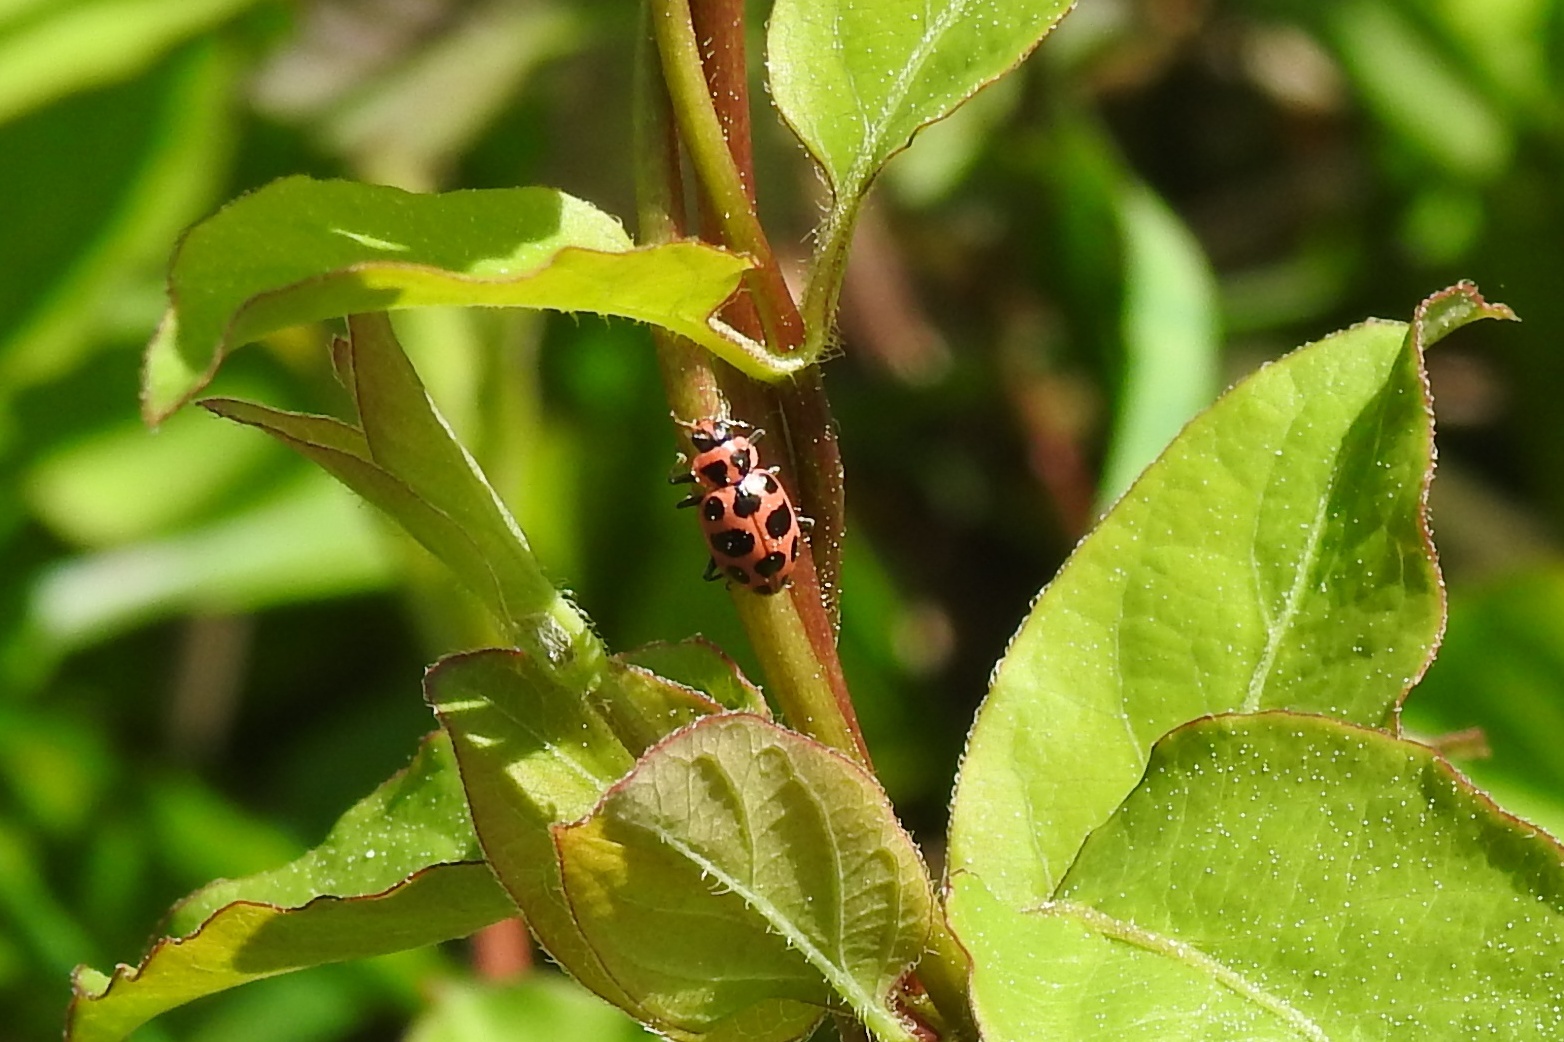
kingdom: Animalia
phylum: Arthropoda
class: Insecta
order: Coleoptera
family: Coccinellidae
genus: Coleomegilla
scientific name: Coleomegilla maculata
